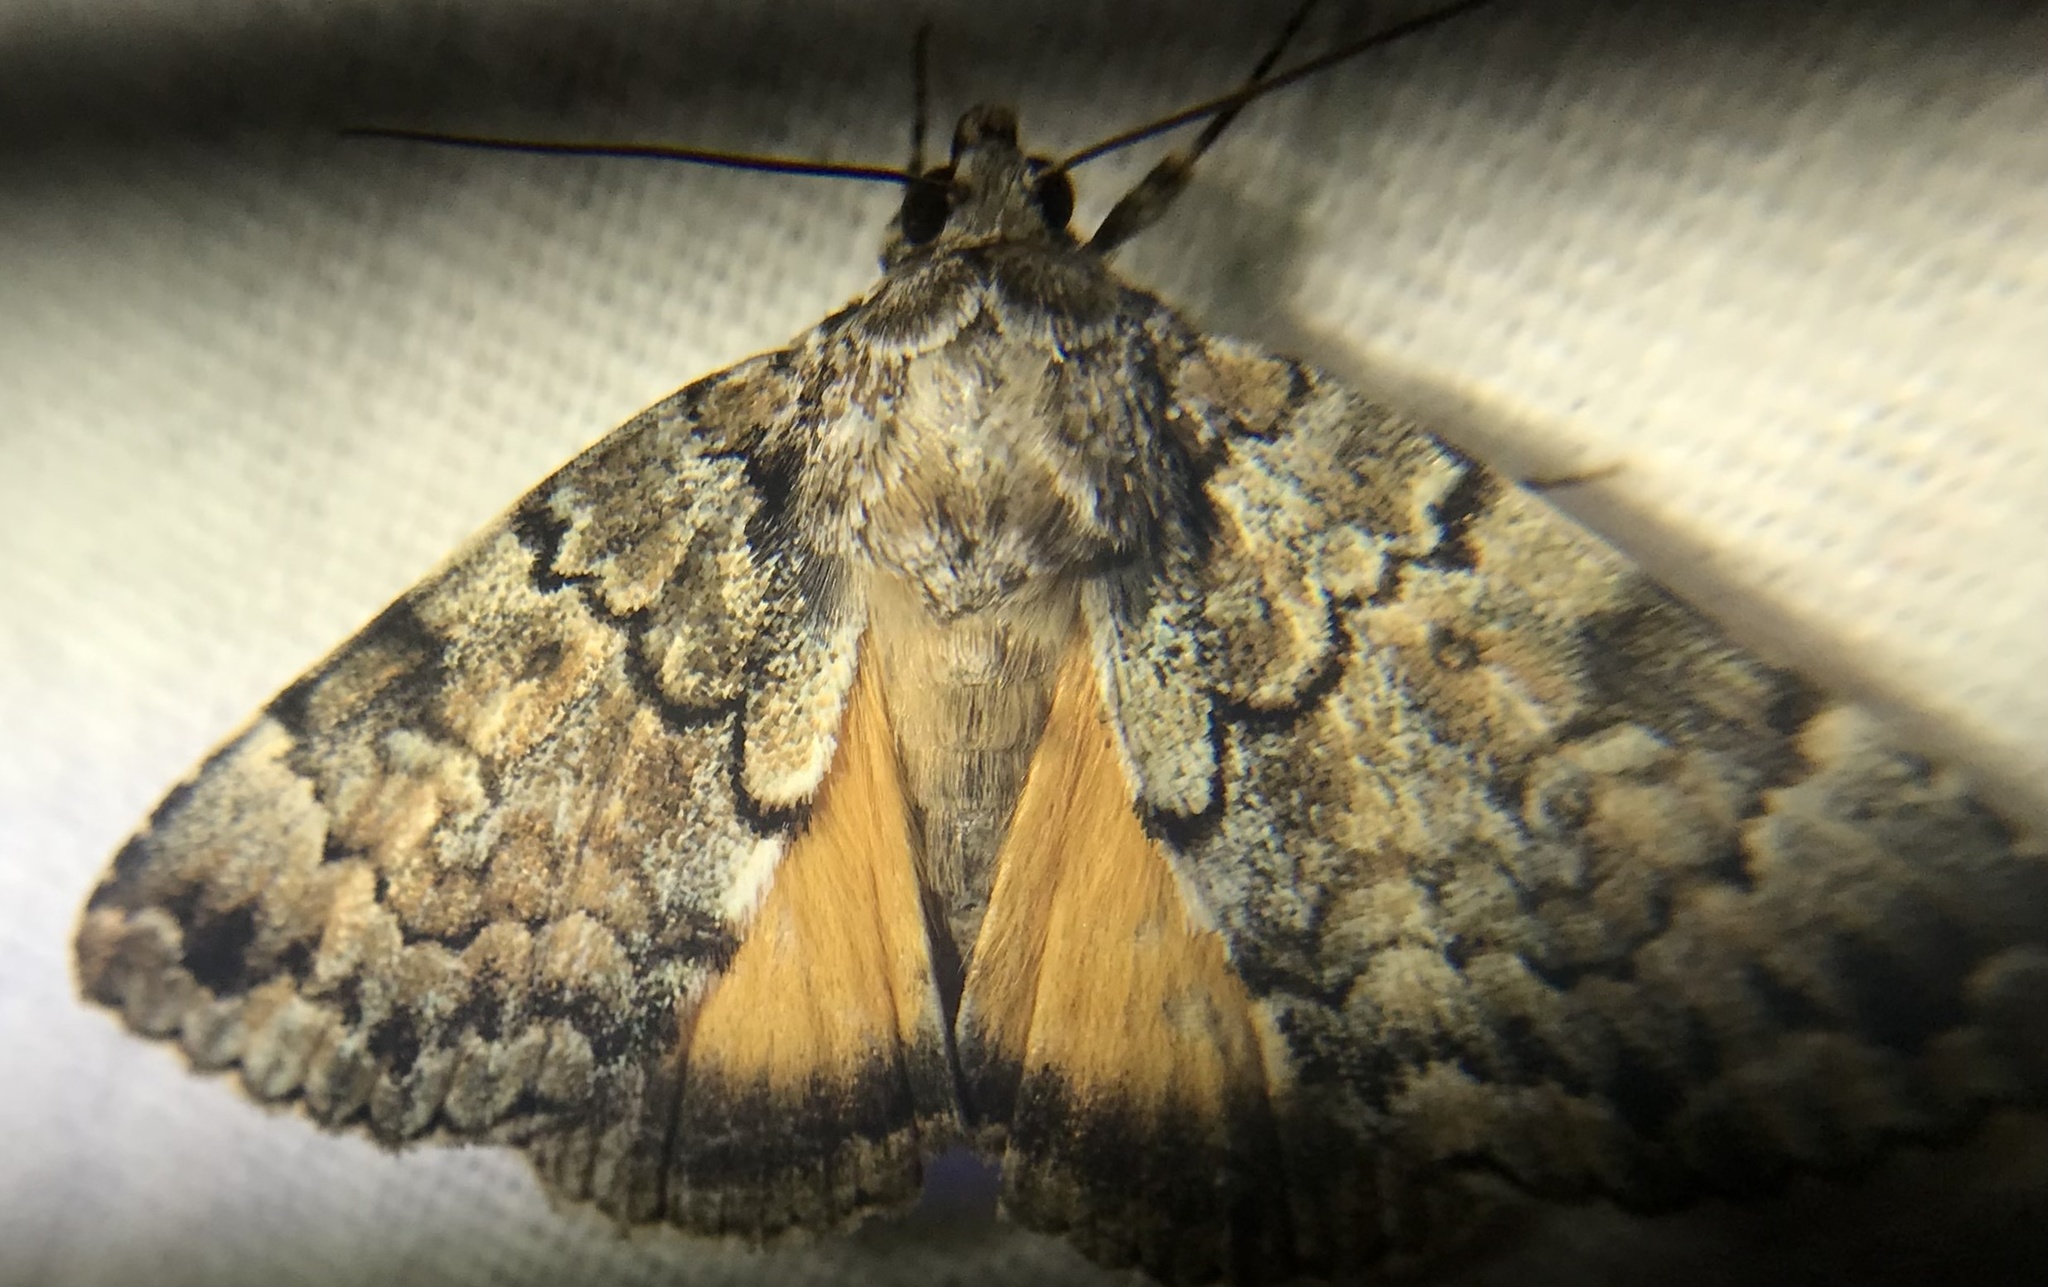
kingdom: Animalia
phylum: Arthropoda
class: Insecta
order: Lepidoptera
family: Erebidae
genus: Allotria
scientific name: Allotria elonympha
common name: False underwing
